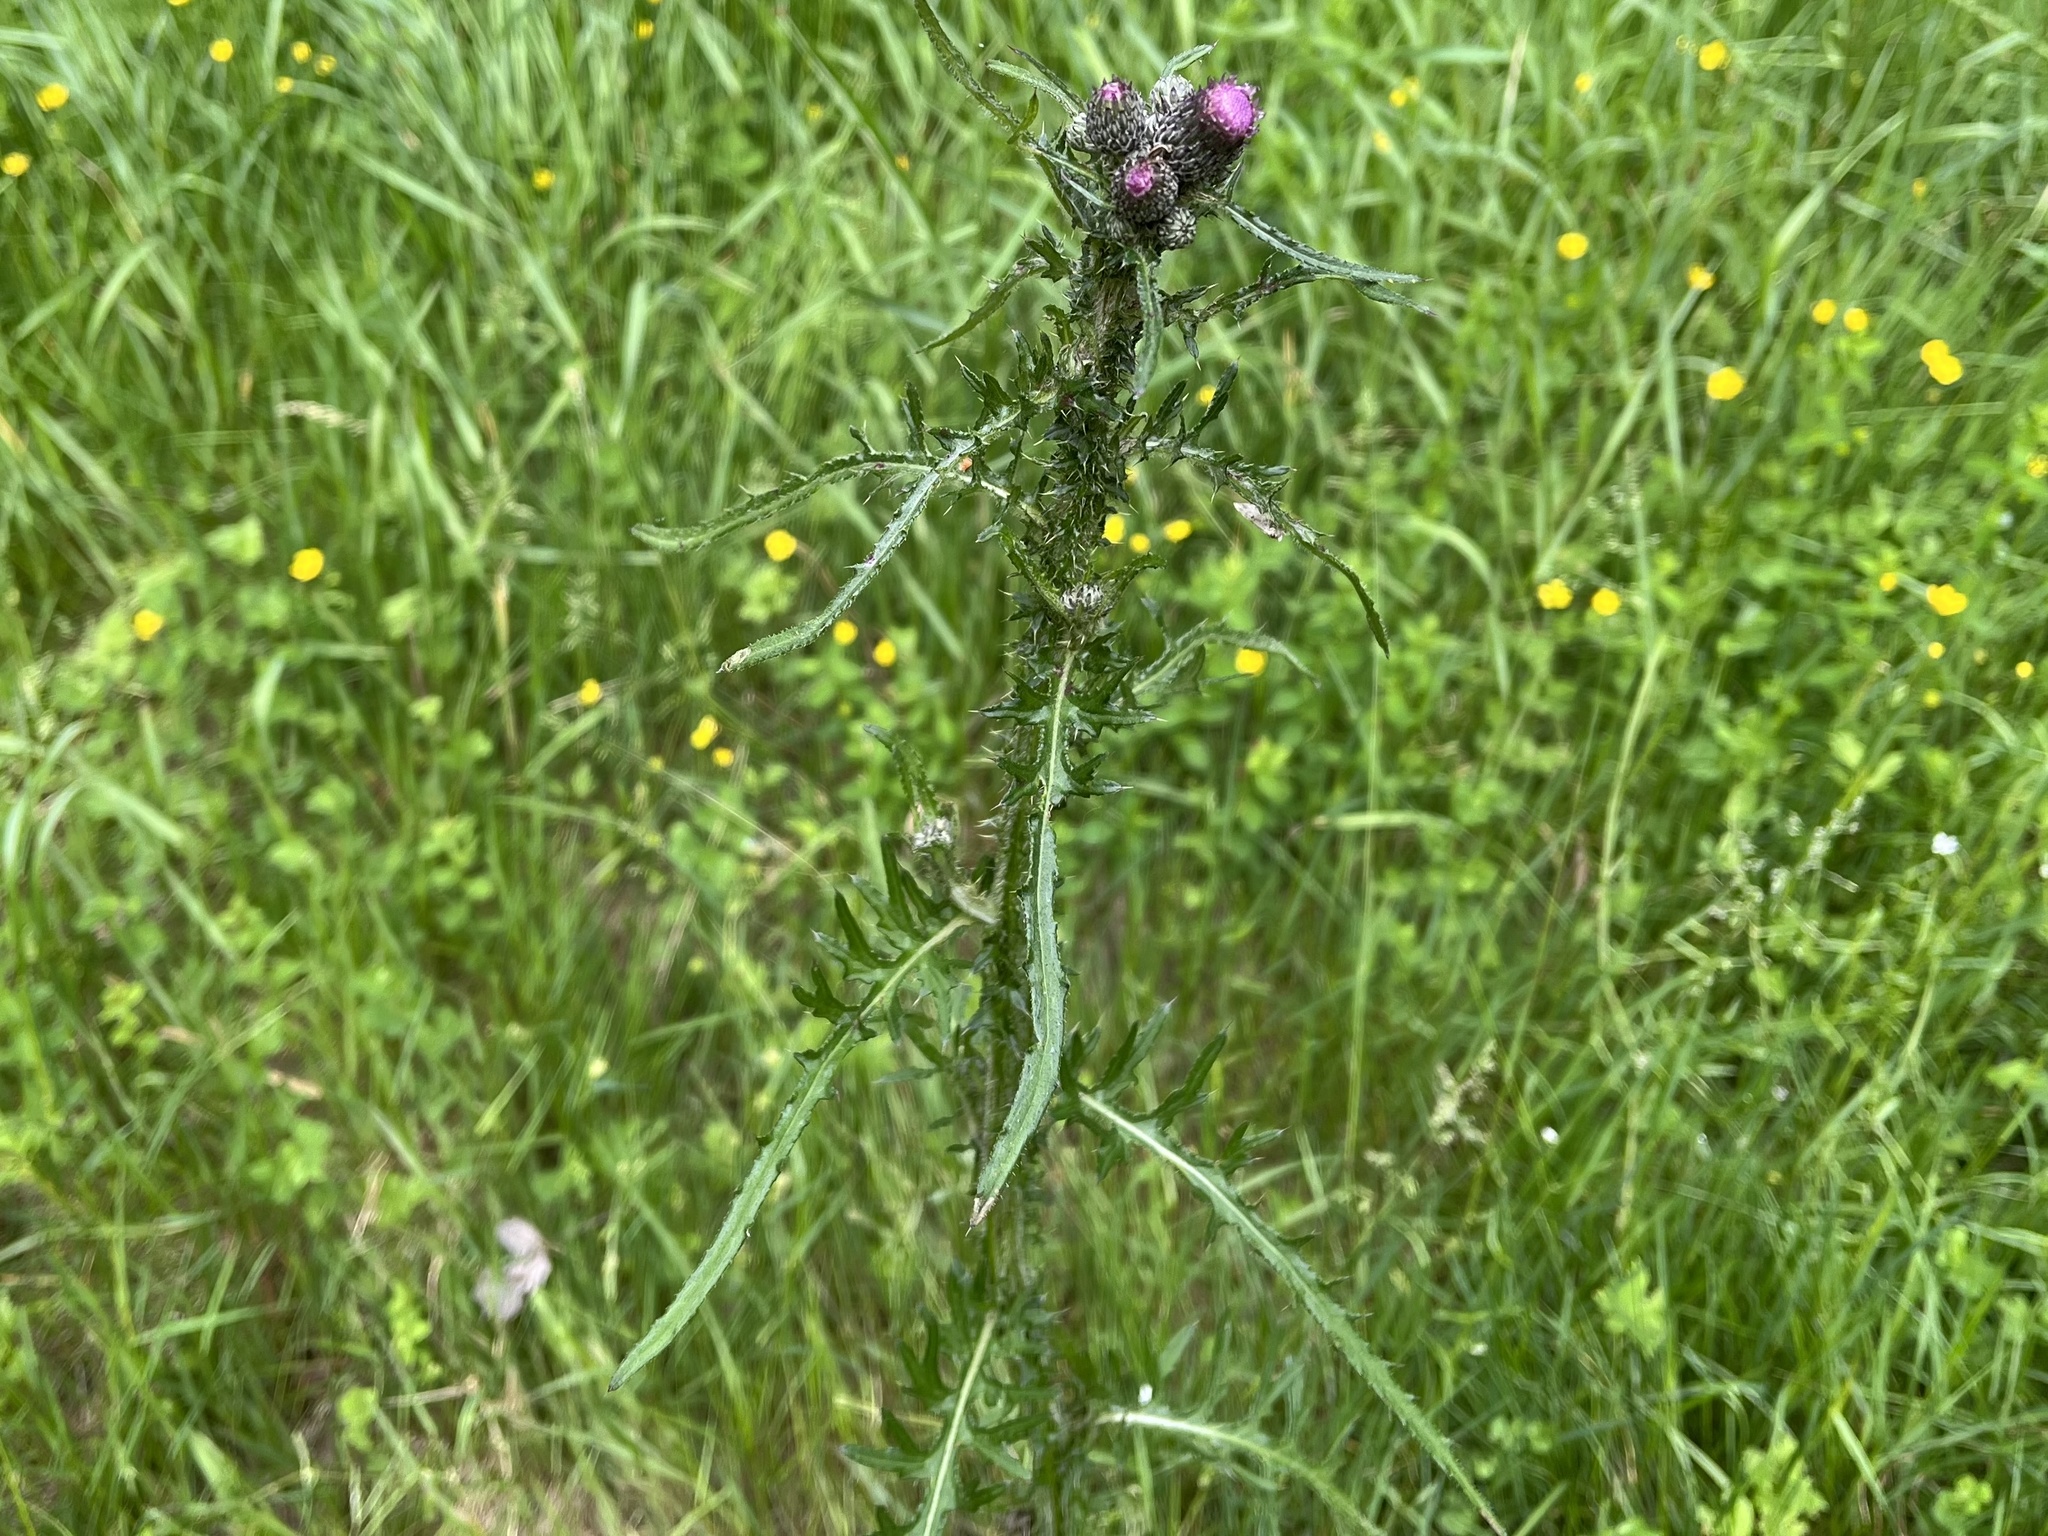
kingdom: Plantae
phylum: Tracheophyta
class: Magnoliopsida
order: Asterales
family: Asteraceae
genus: Cirsium
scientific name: Cirsium palustre
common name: Marsh thistle
